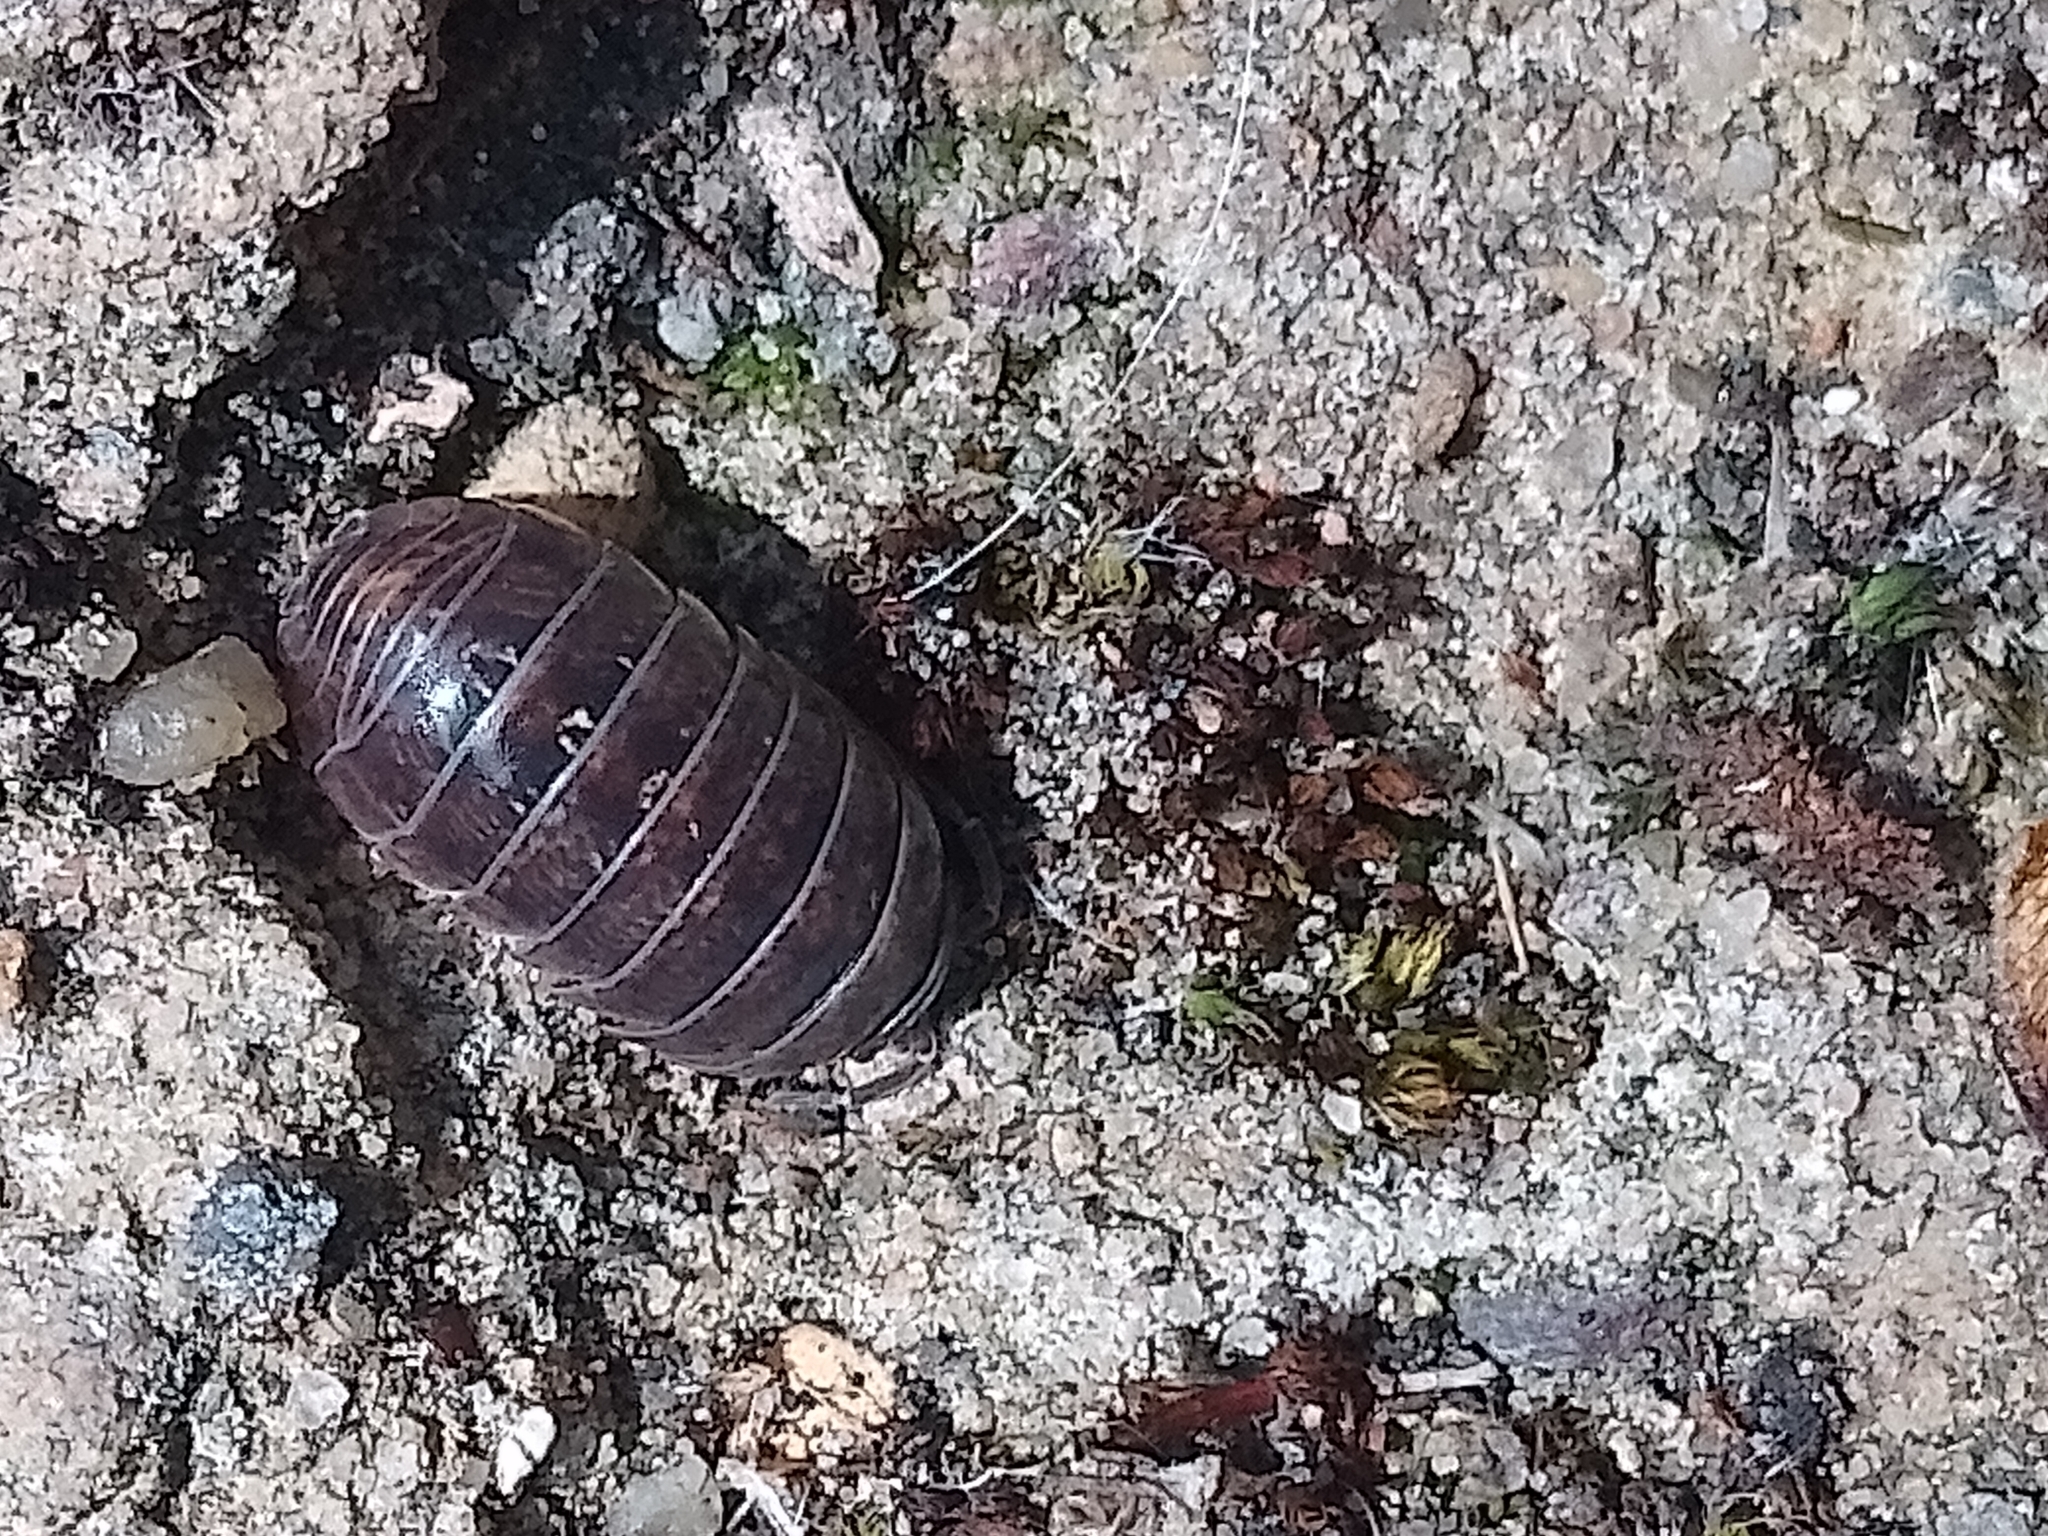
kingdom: Animalia
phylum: Arthropoda
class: Malacostraca
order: Isopoda
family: Armadillidiidae
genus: Armadillidium
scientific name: Armadillidium vulgare
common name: Common pill woodlouse
